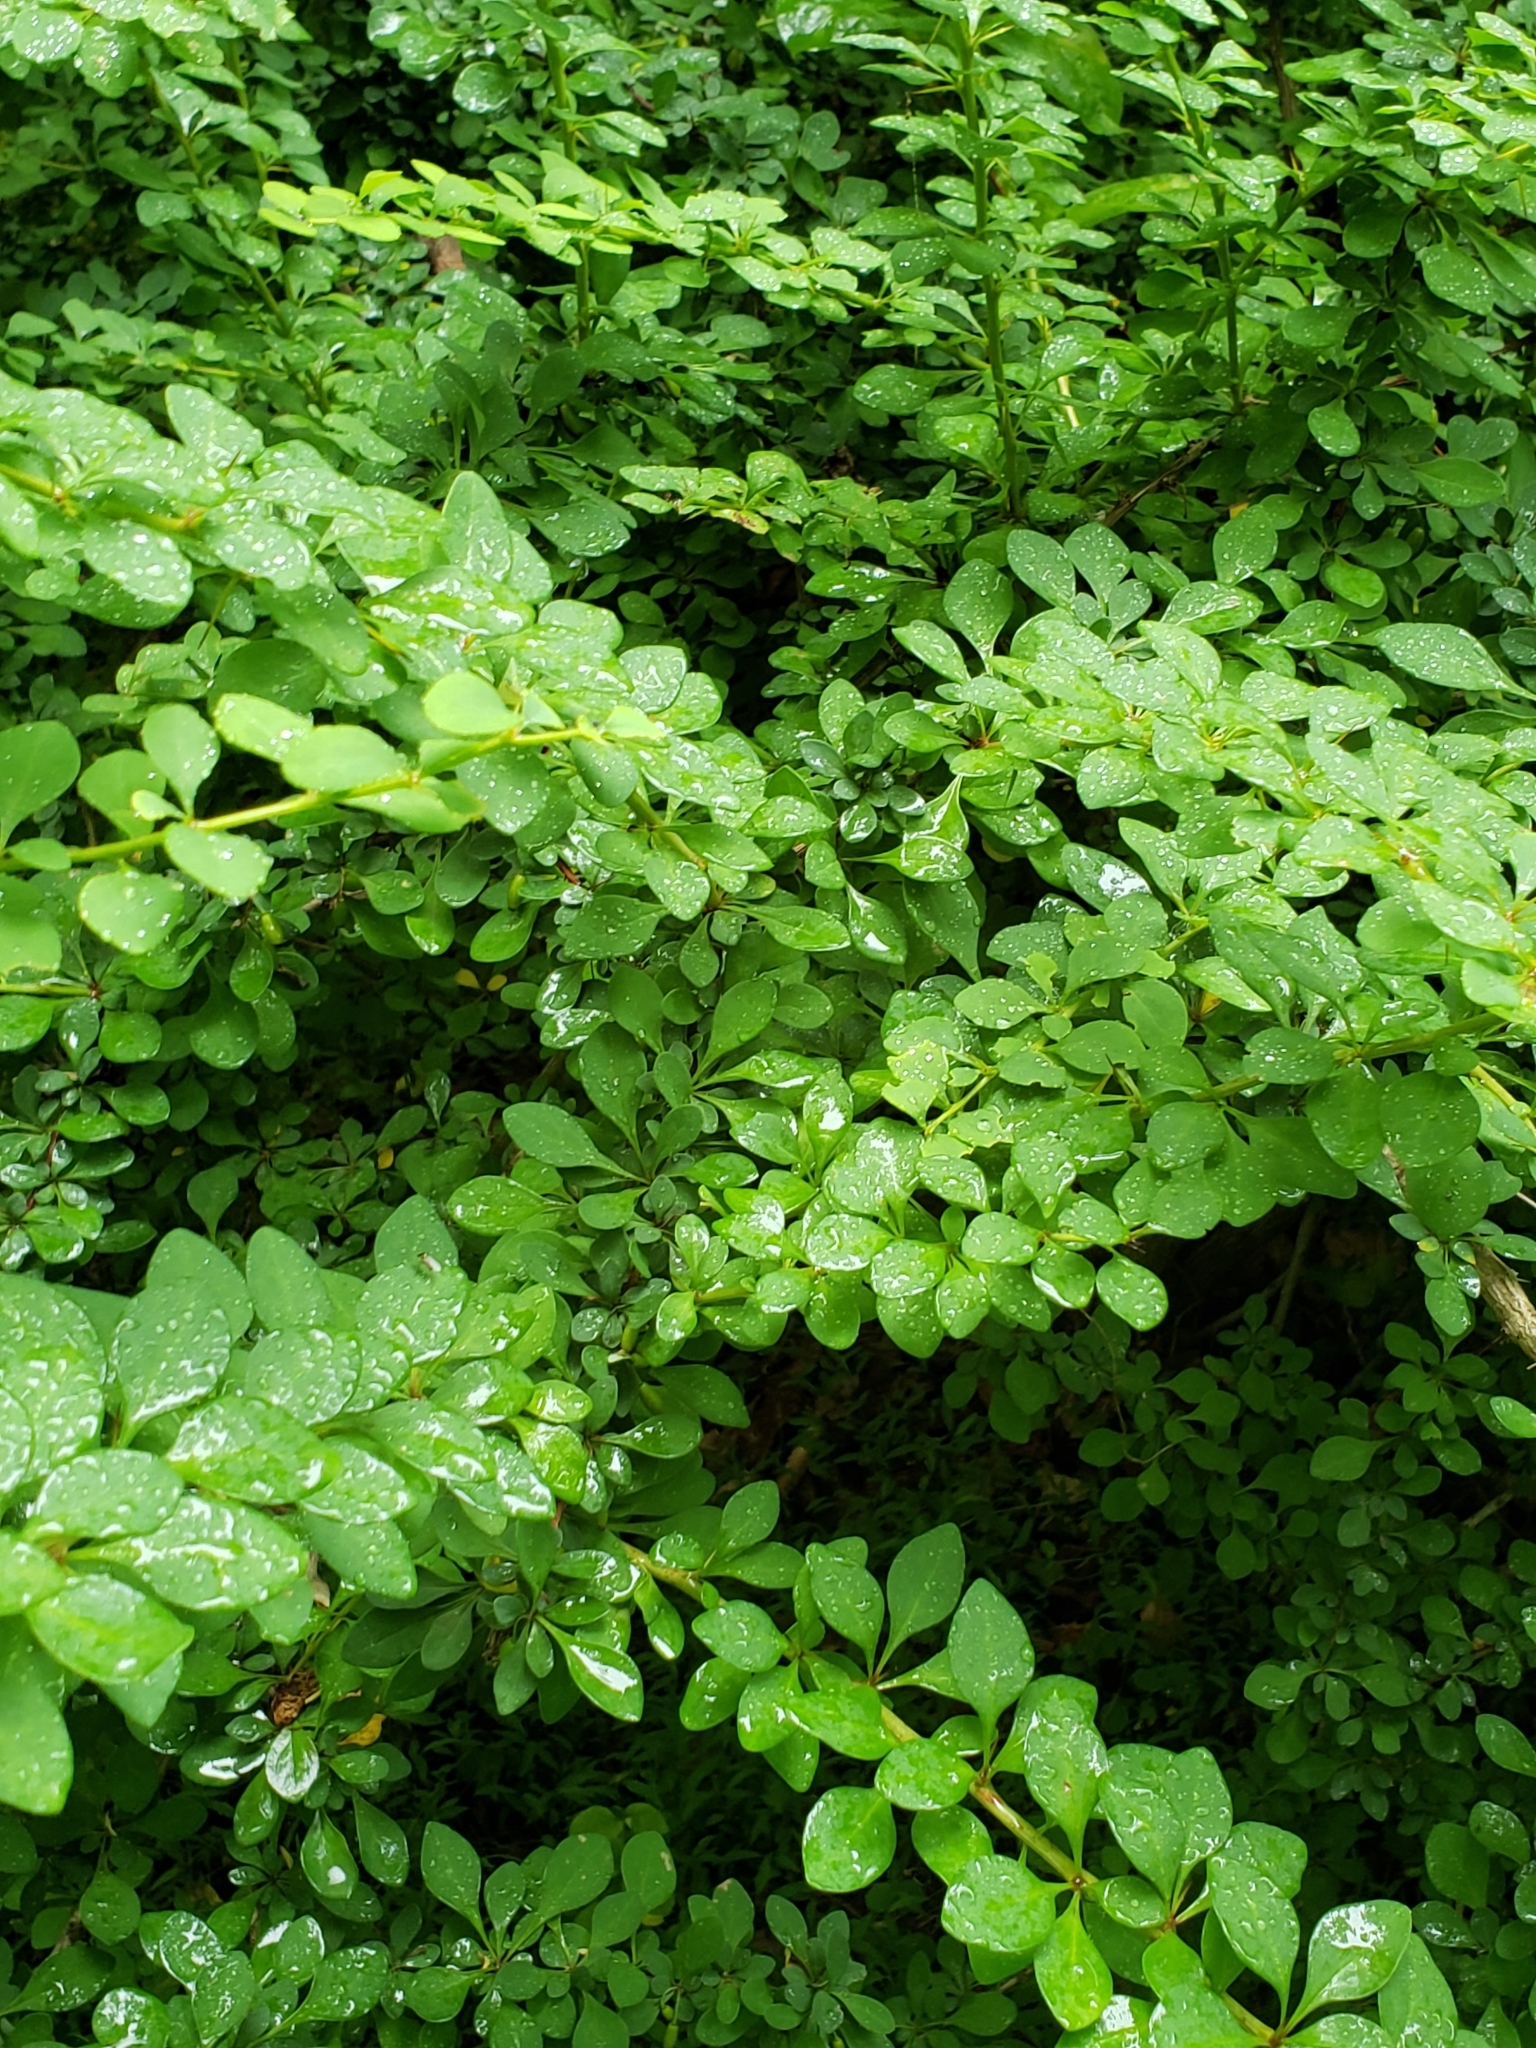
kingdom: Plantae
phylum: Tracheophyta
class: Magnoliopsida
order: Ranunculales
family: Berberidaceae
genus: Berberis
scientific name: Berberis thunbergii
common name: Japanese barberry
